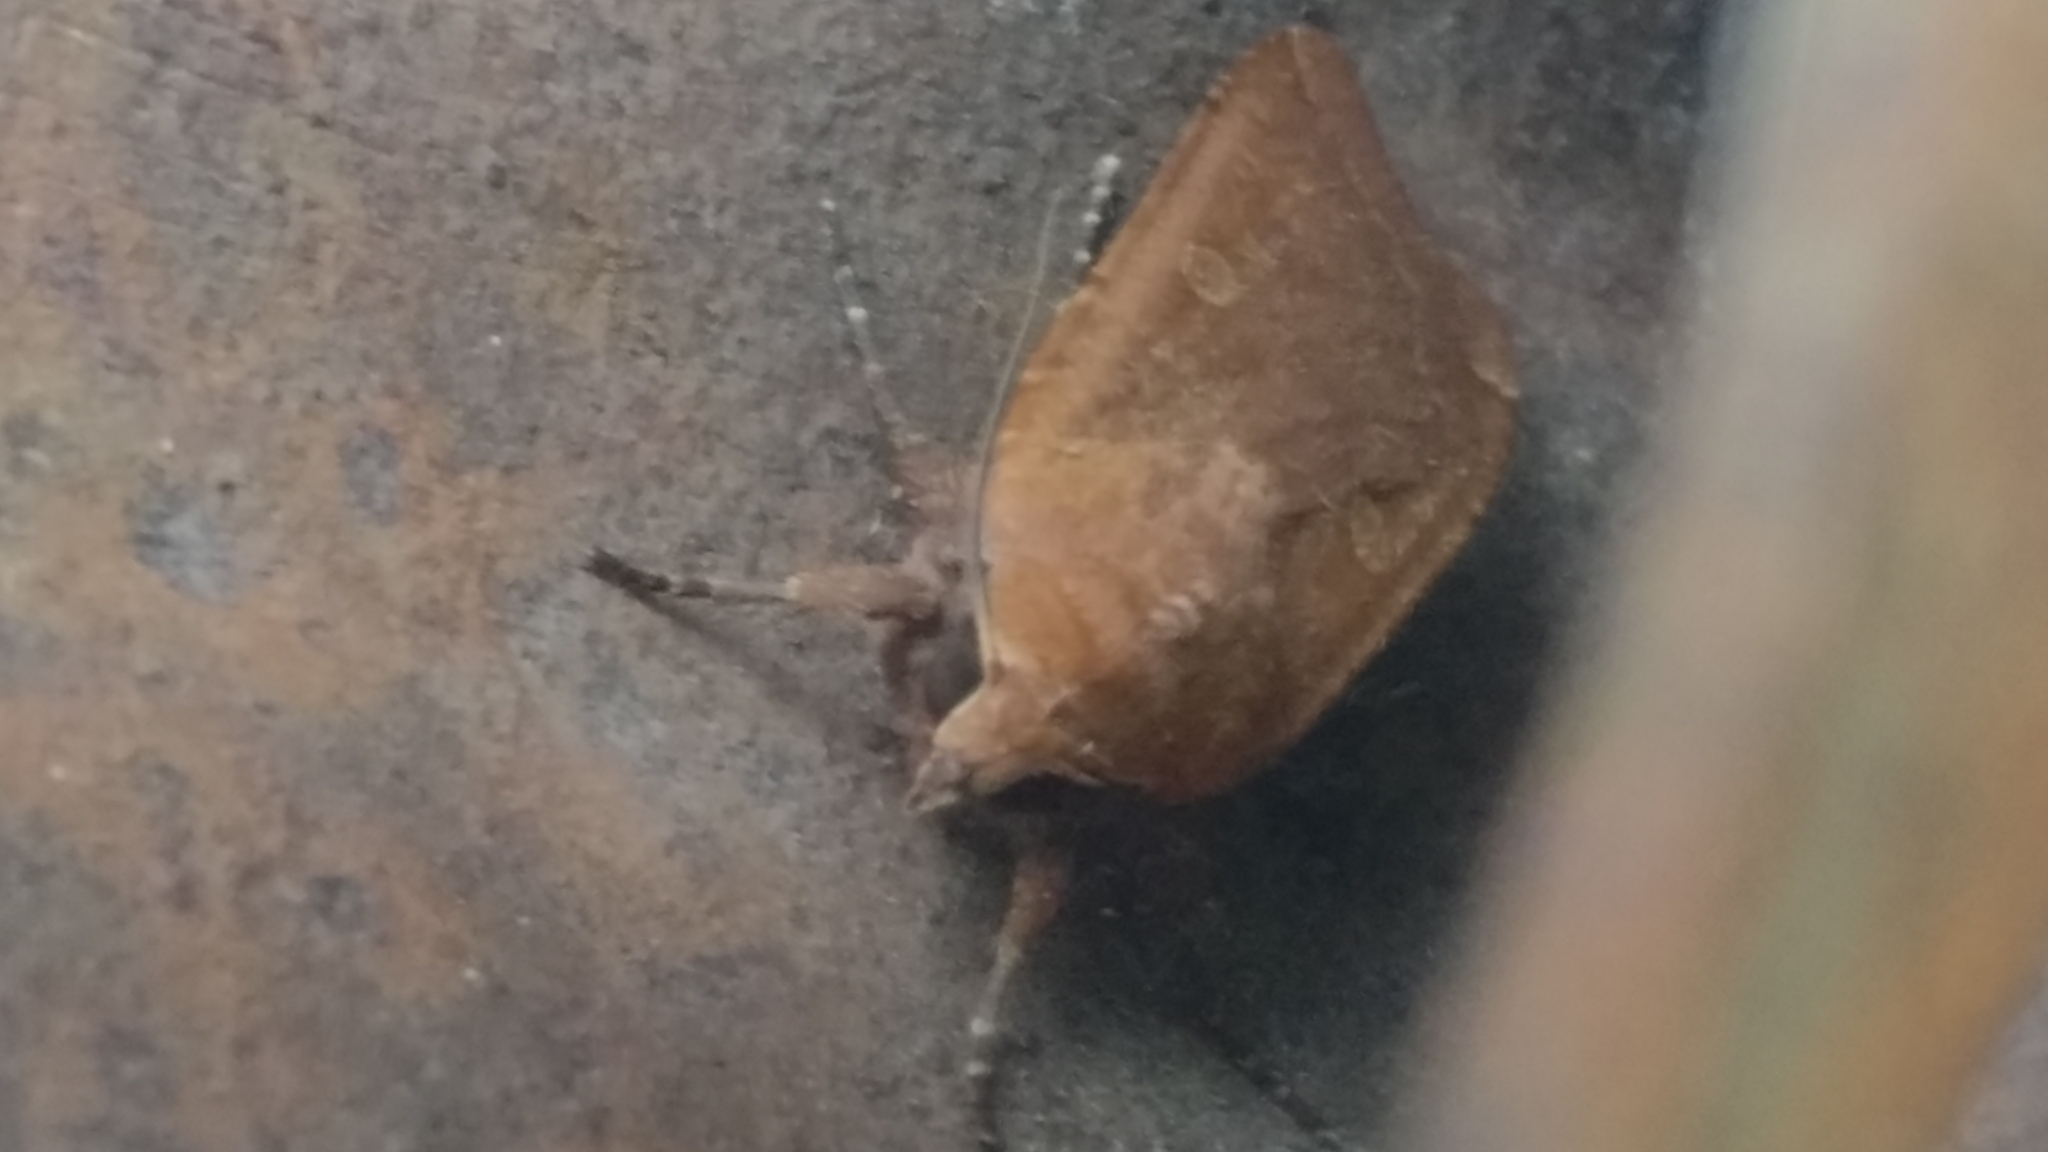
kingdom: Animalia
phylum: Arthropoda
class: Insecta
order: Lepidoptera
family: Noctuidae
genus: Noctua
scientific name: Noctua pronuba
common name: Large yellow underwing
